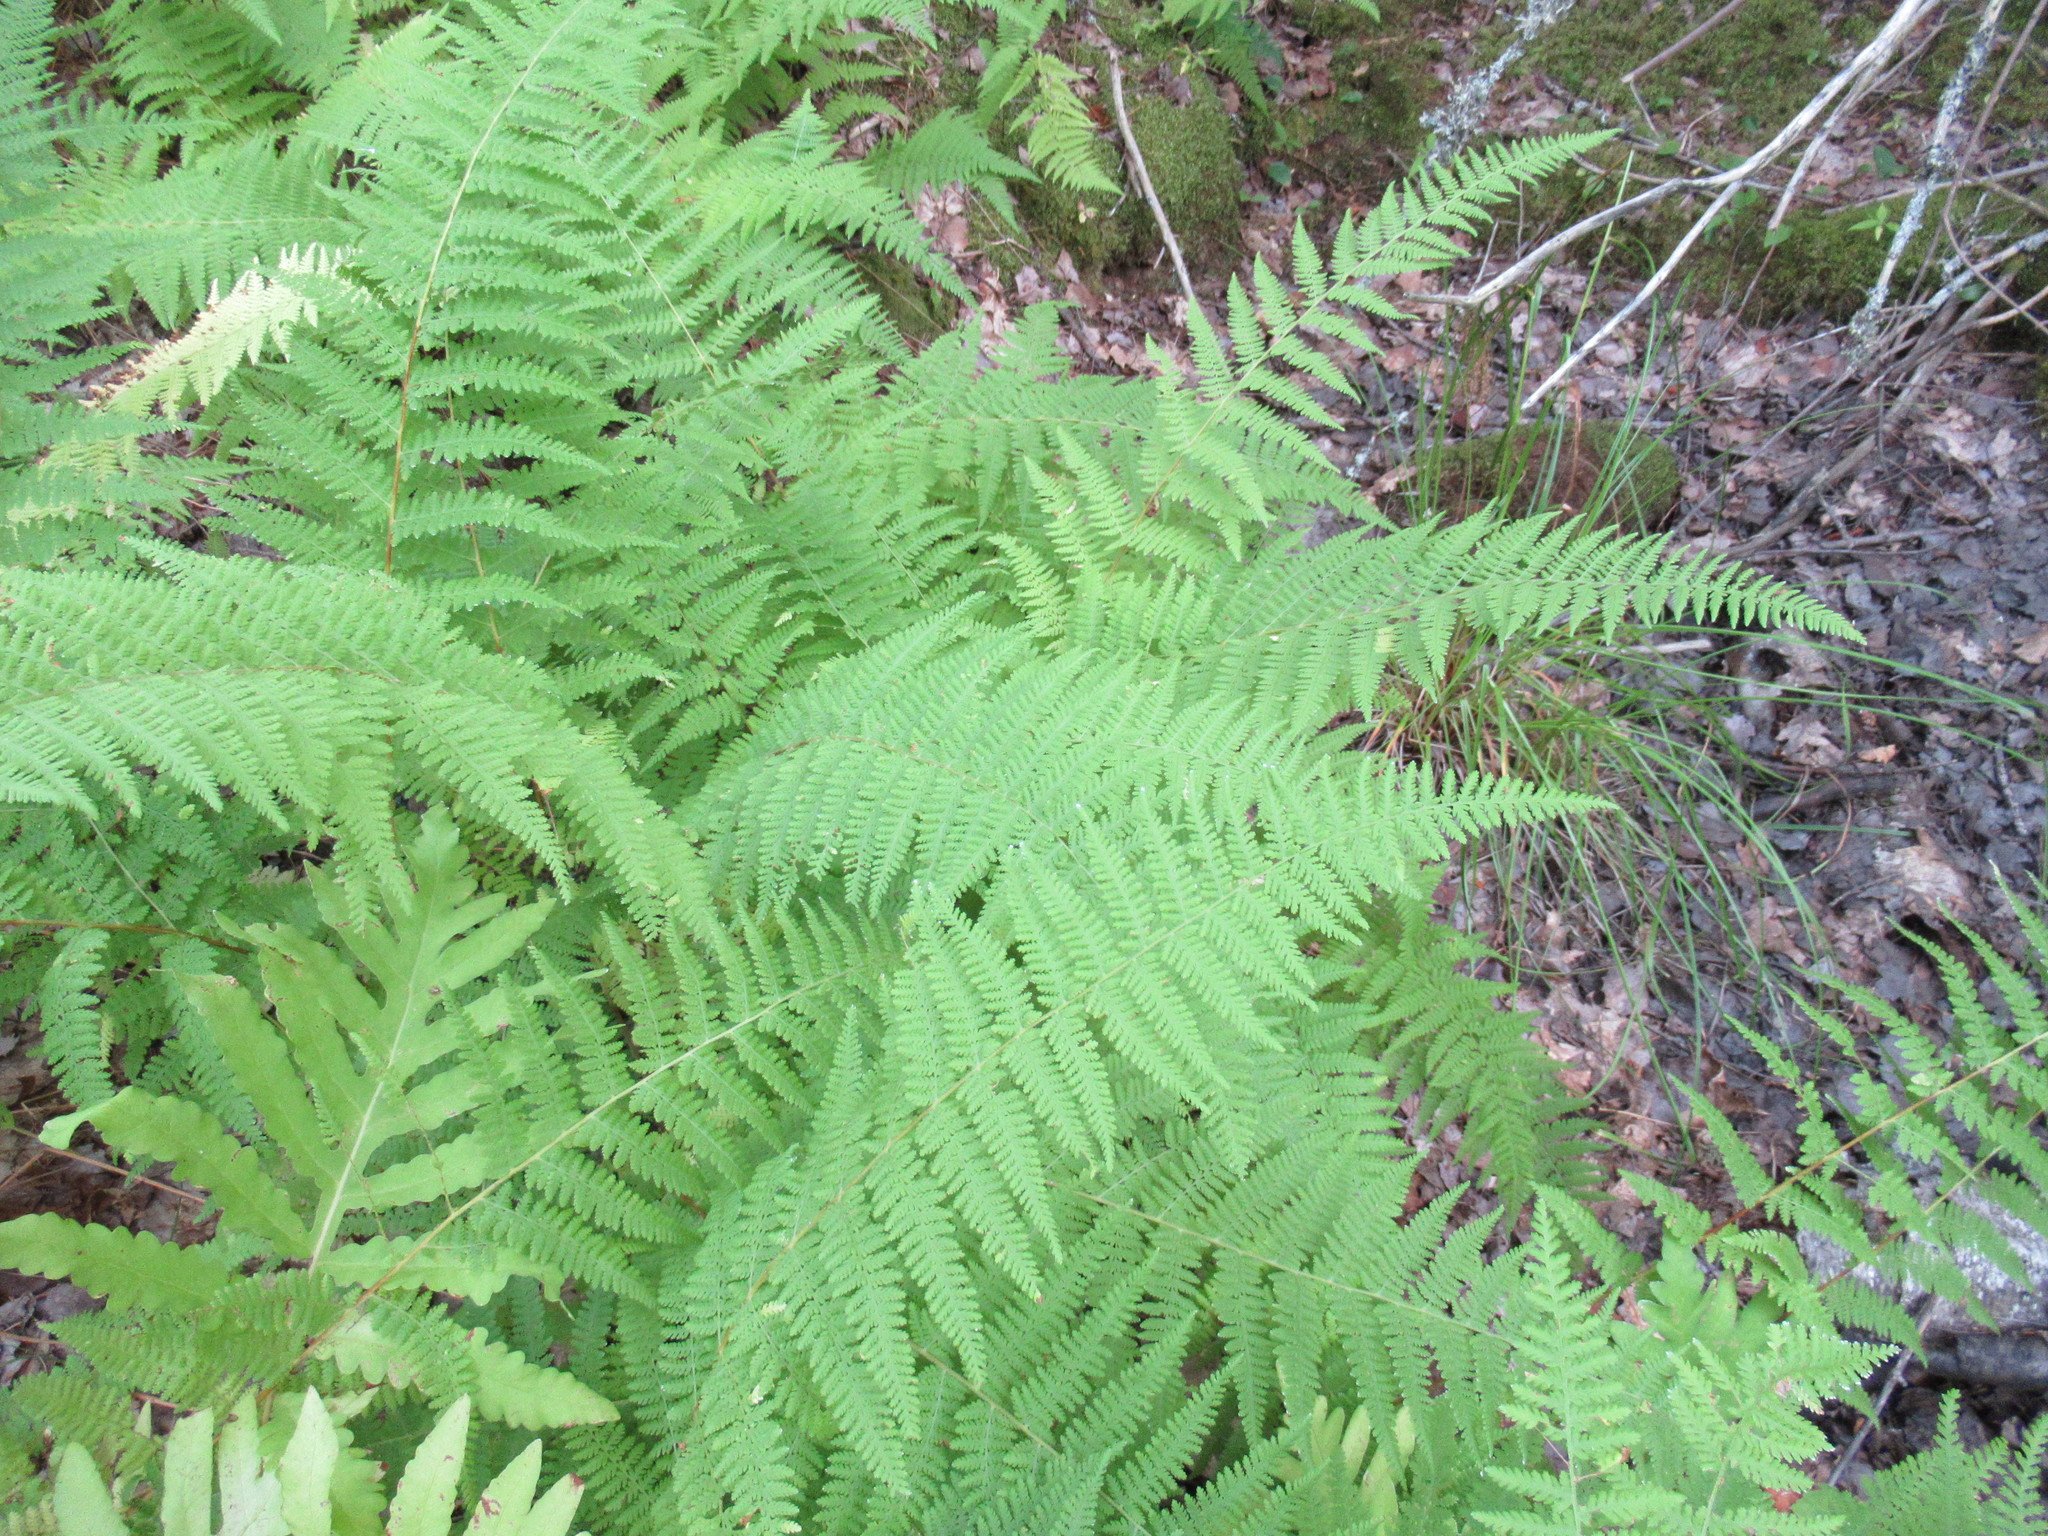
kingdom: Plantae
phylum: Tracheophyta
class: Polypodiopsida
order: Polypodiales
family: Dennstaedtiaceae
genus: Sitobolium
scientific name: Sitobolium punctilobum
